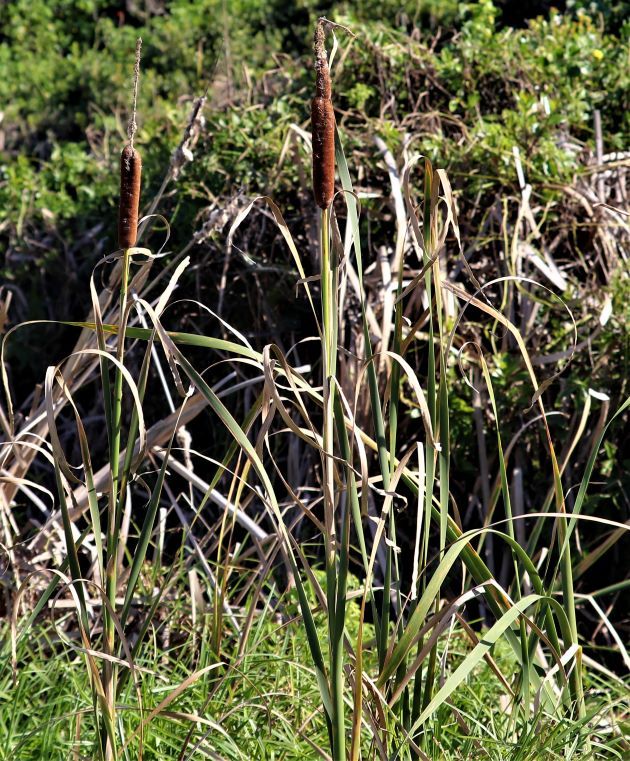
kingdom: Plantae
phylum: Tracheophyta
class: Liliopsida
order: Poales
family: Typhaceae
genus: Typha
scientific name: Typha capensis
